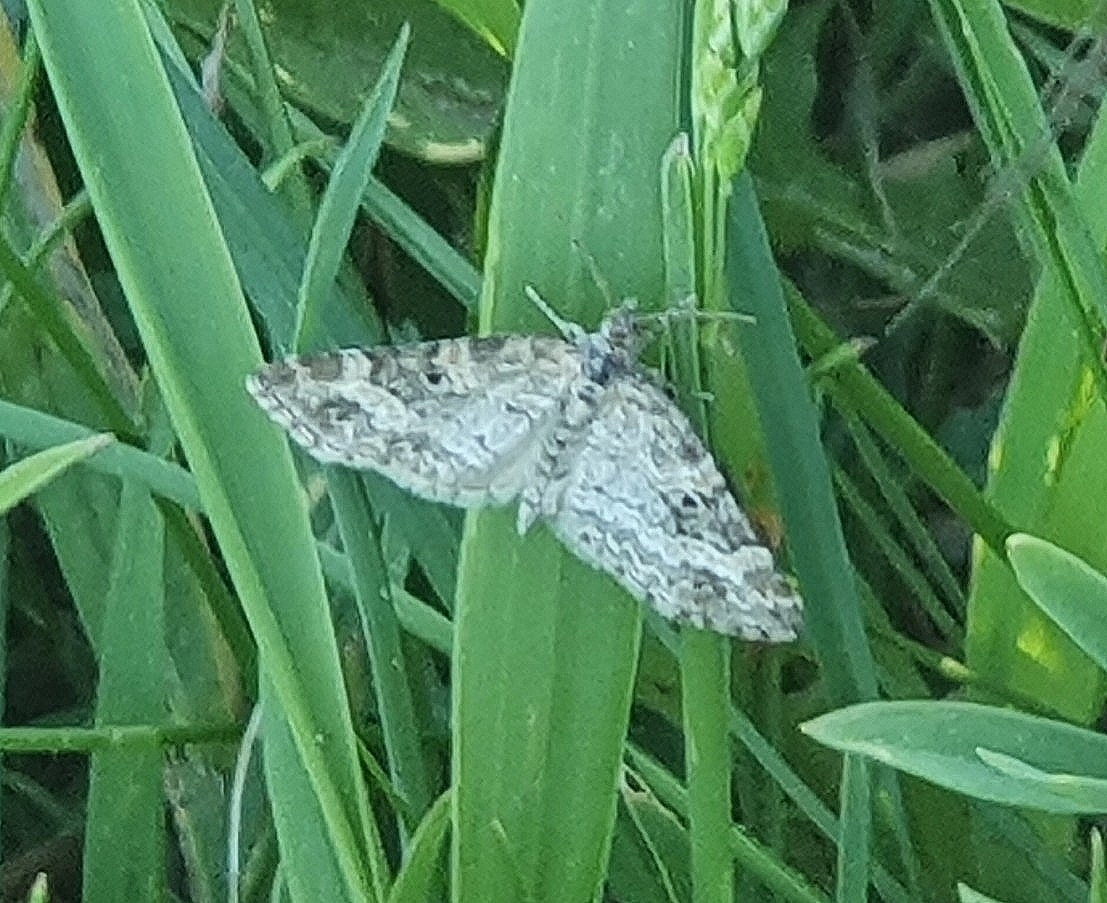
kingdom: Animalia
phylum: Arthropoda
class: Insecta
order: Lepidoptera
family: Geometridae
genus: Pterapherapteryx
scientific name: Pterapherapteryx sexalata
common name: Small seraphim
